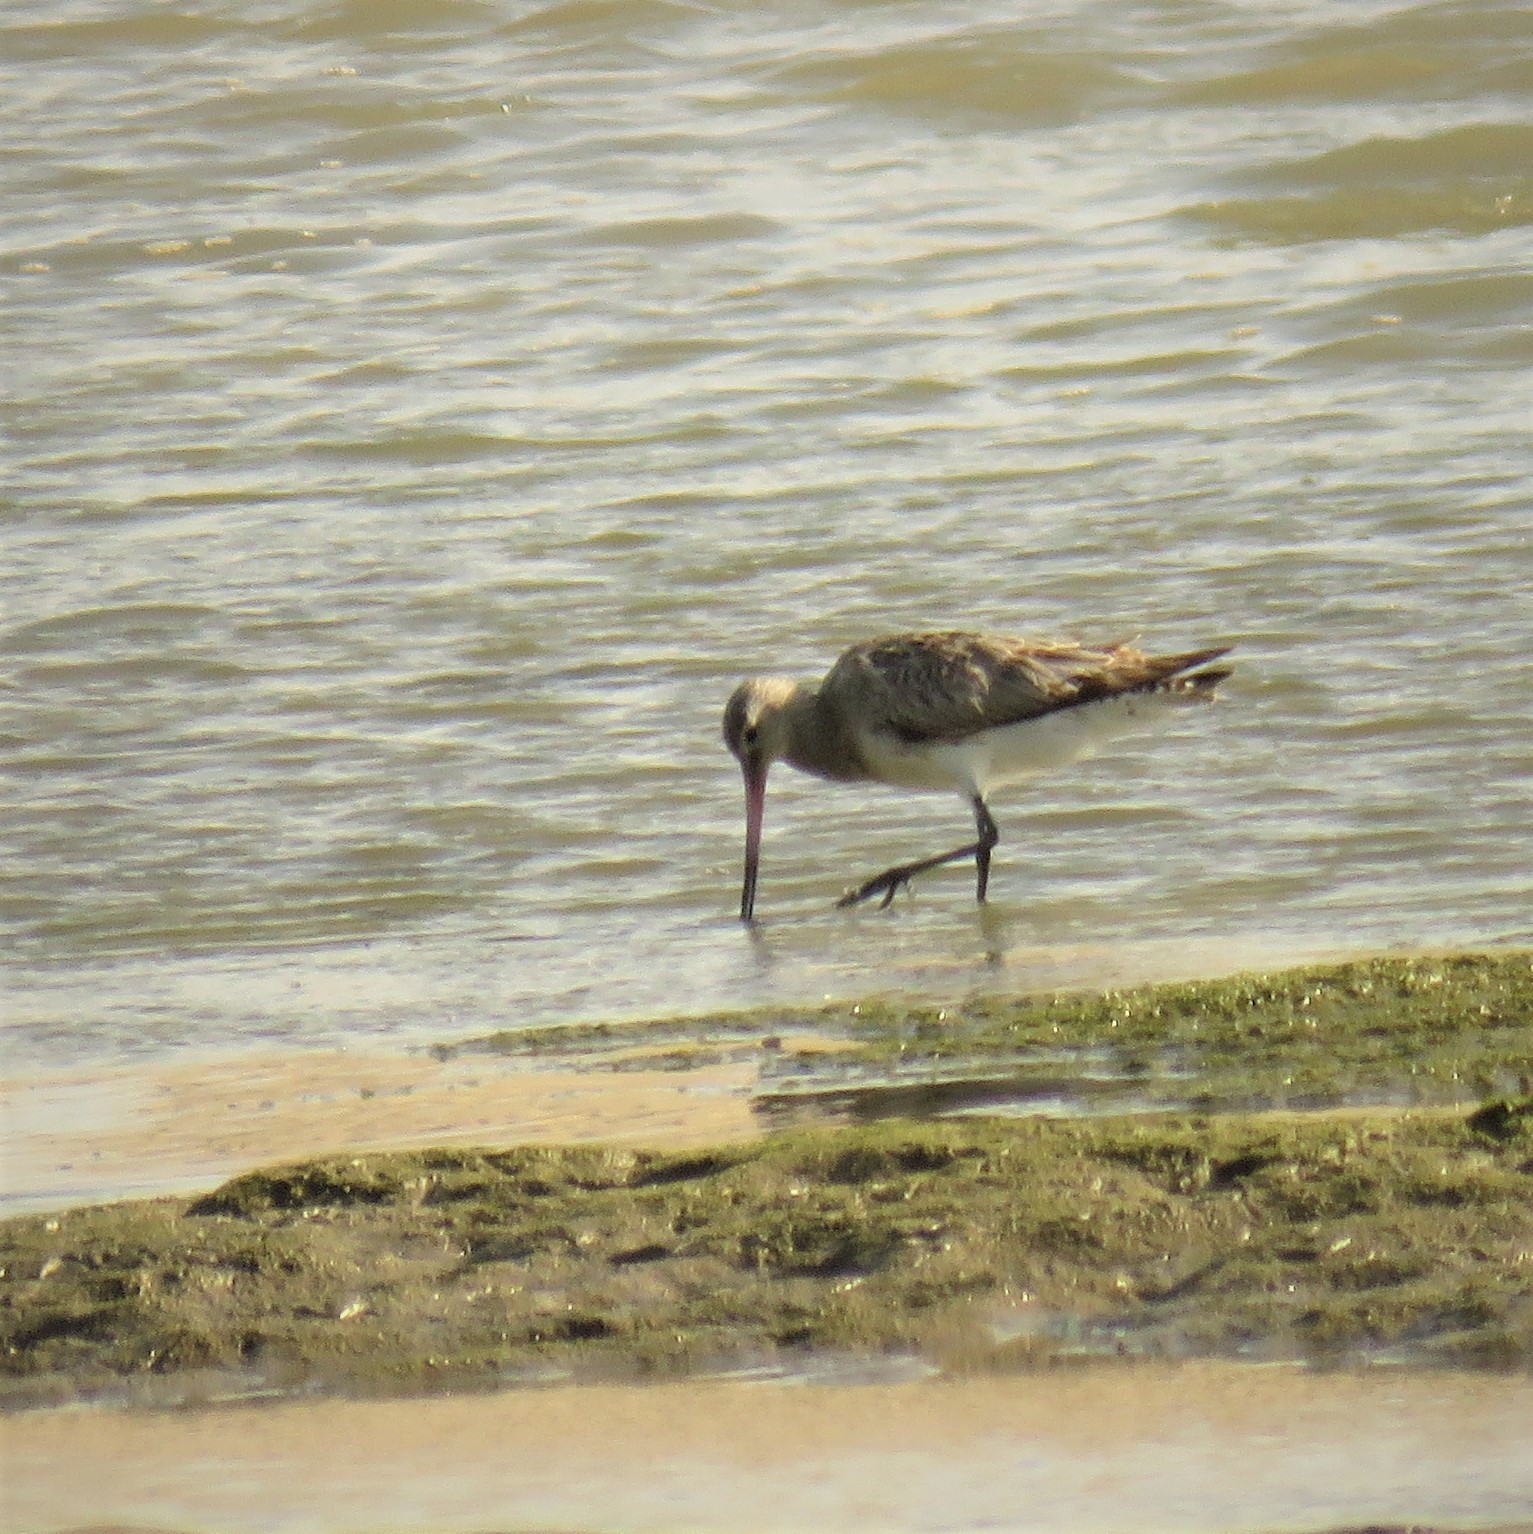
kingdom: Animalia
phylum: Chordata
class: Aves
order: Charadriiformes
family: Scolopacidae
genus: Limosa
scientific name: Limosa lapponica
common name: Bar-tailed godwit
